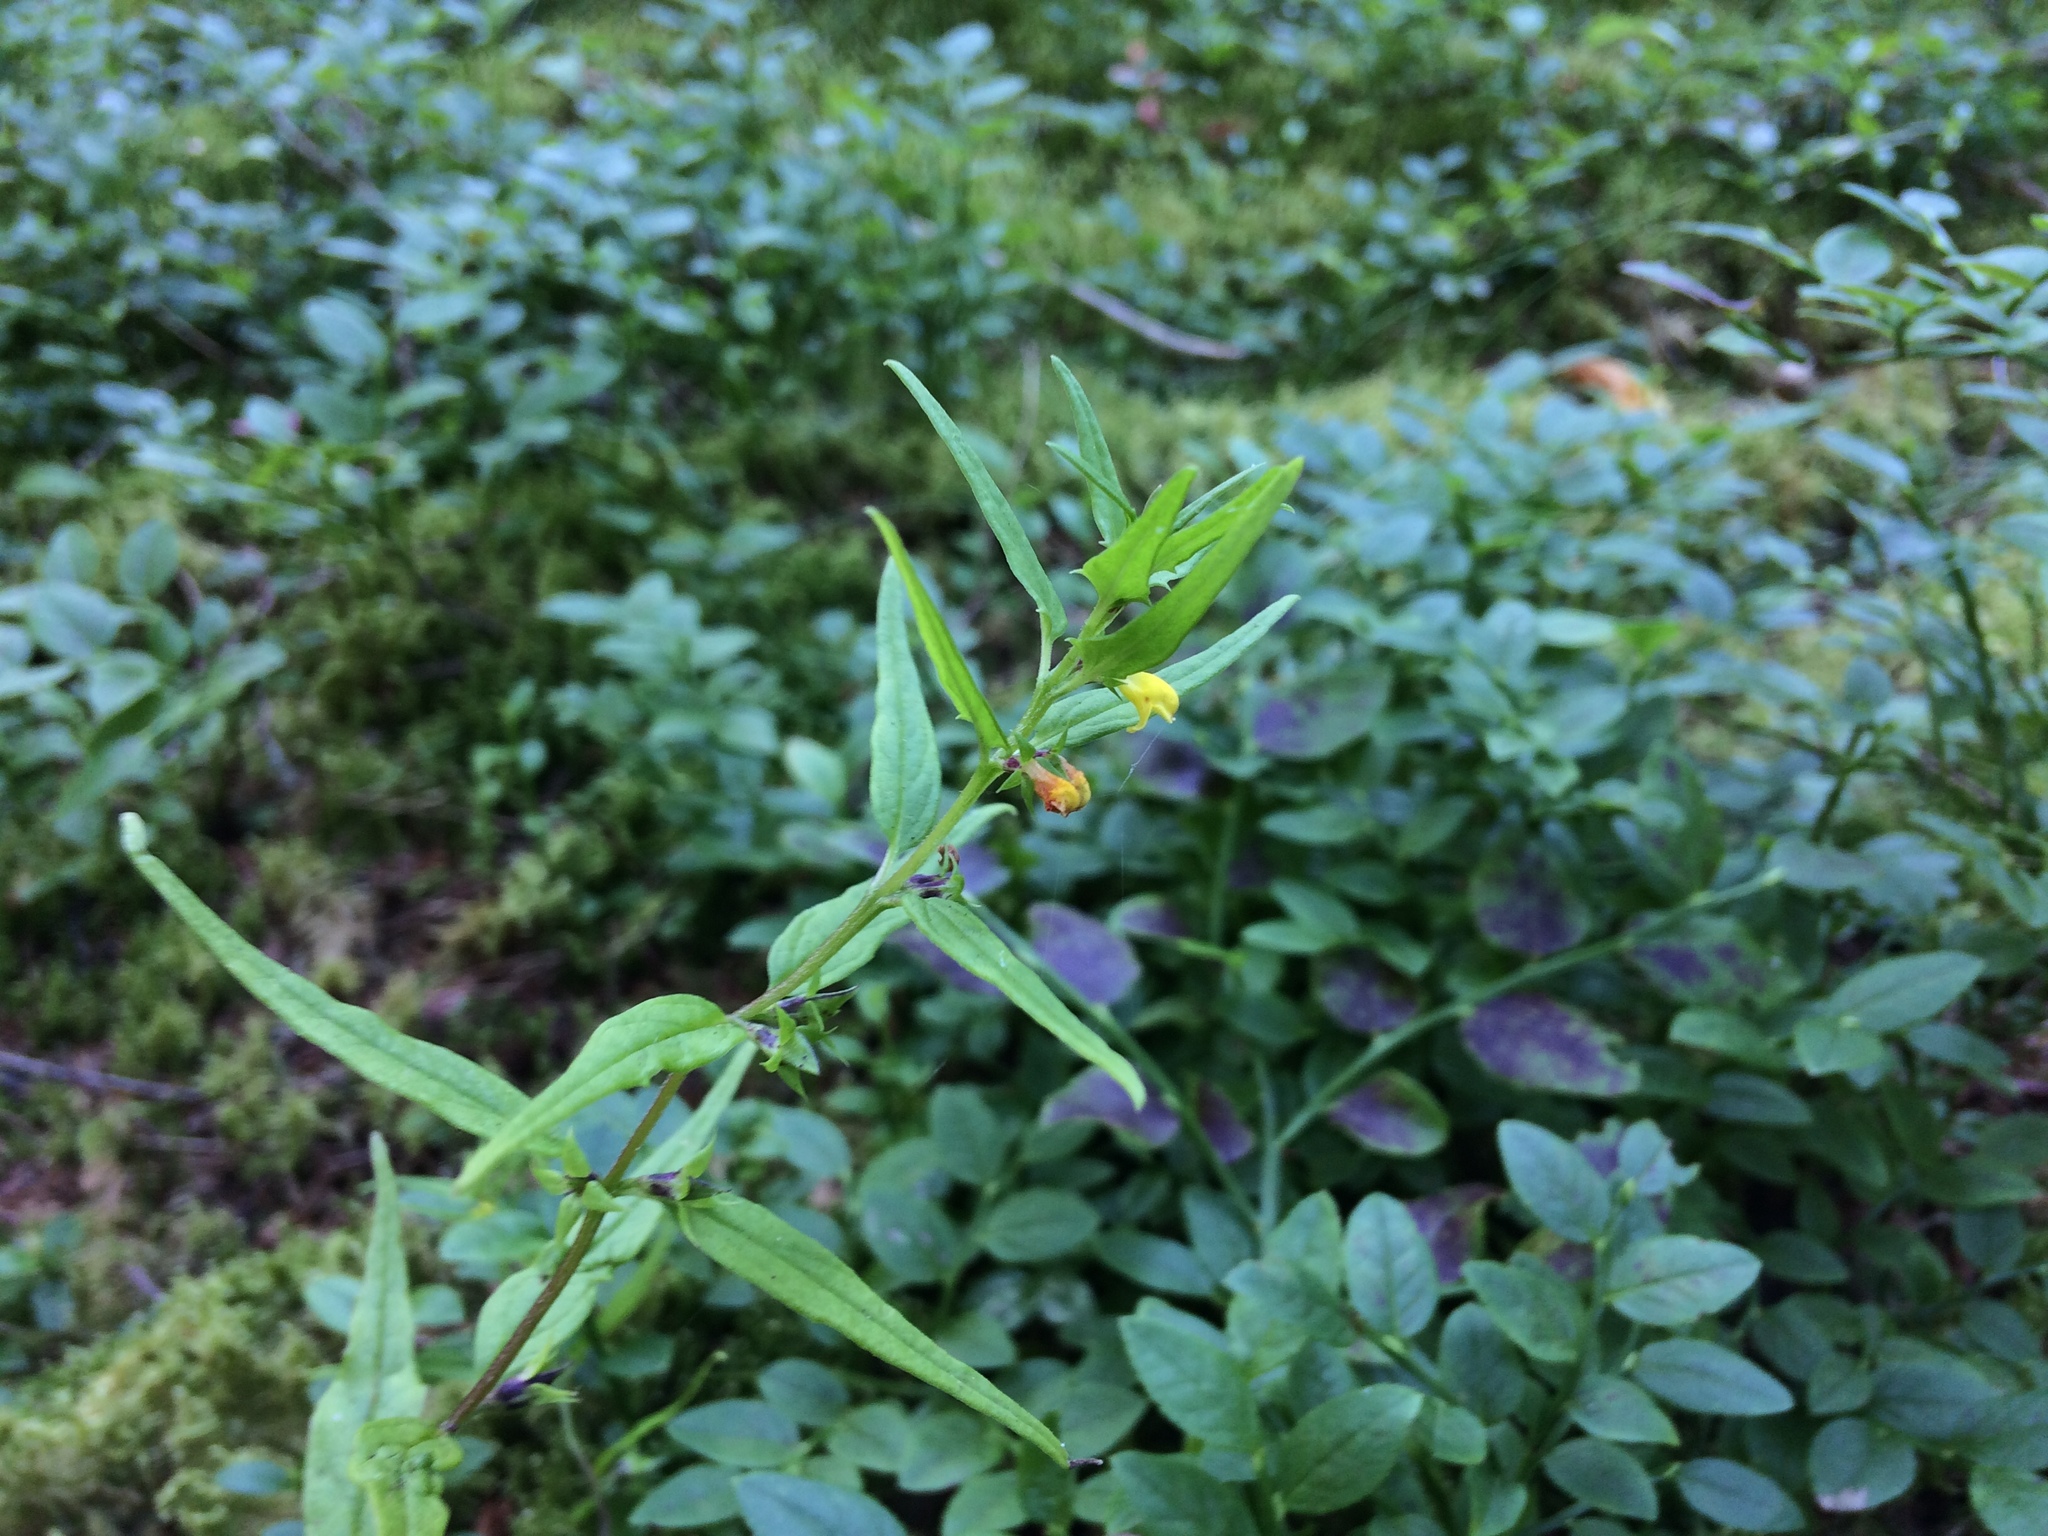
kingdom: Plantae
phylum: Tracheophyta
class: Magnoliopsida
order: Lamiales
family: Orobanchaceae
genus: Melampyrum
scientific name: Melampyrum sylvaticum
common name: Small cow-wheat
